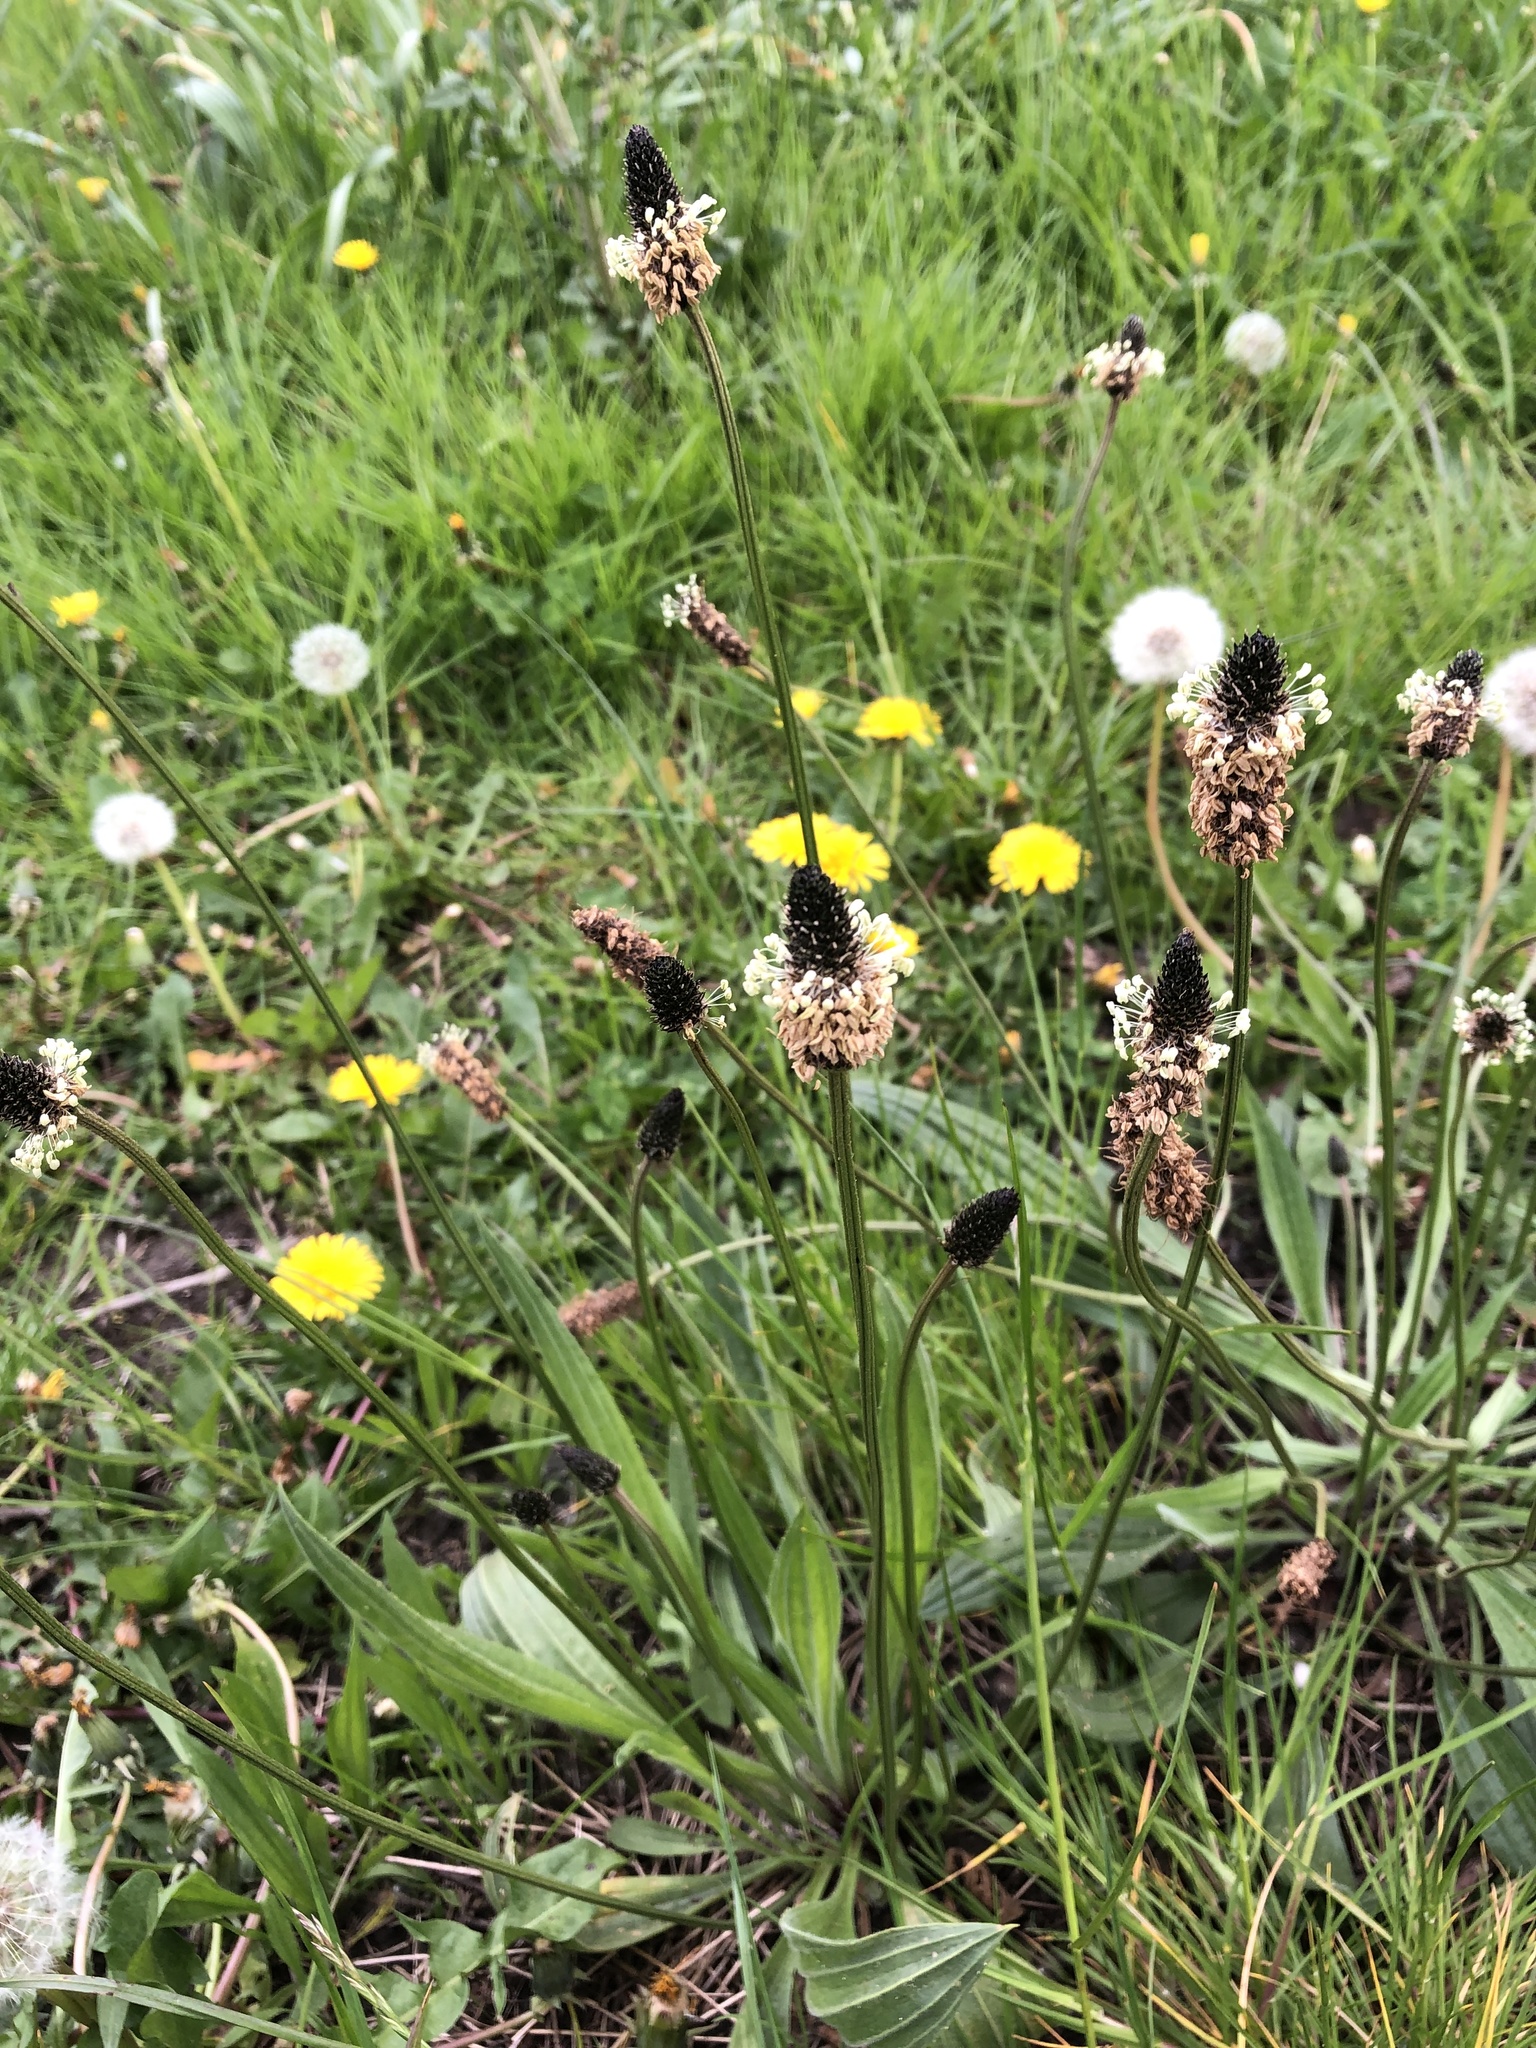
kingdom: Plantae
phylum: Tracheophyta
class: Magnoliopsida
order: Lamiales
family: Plantaginaceae
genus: Plantago
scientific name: Plantago lanceolata
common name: Ribwort plantain
